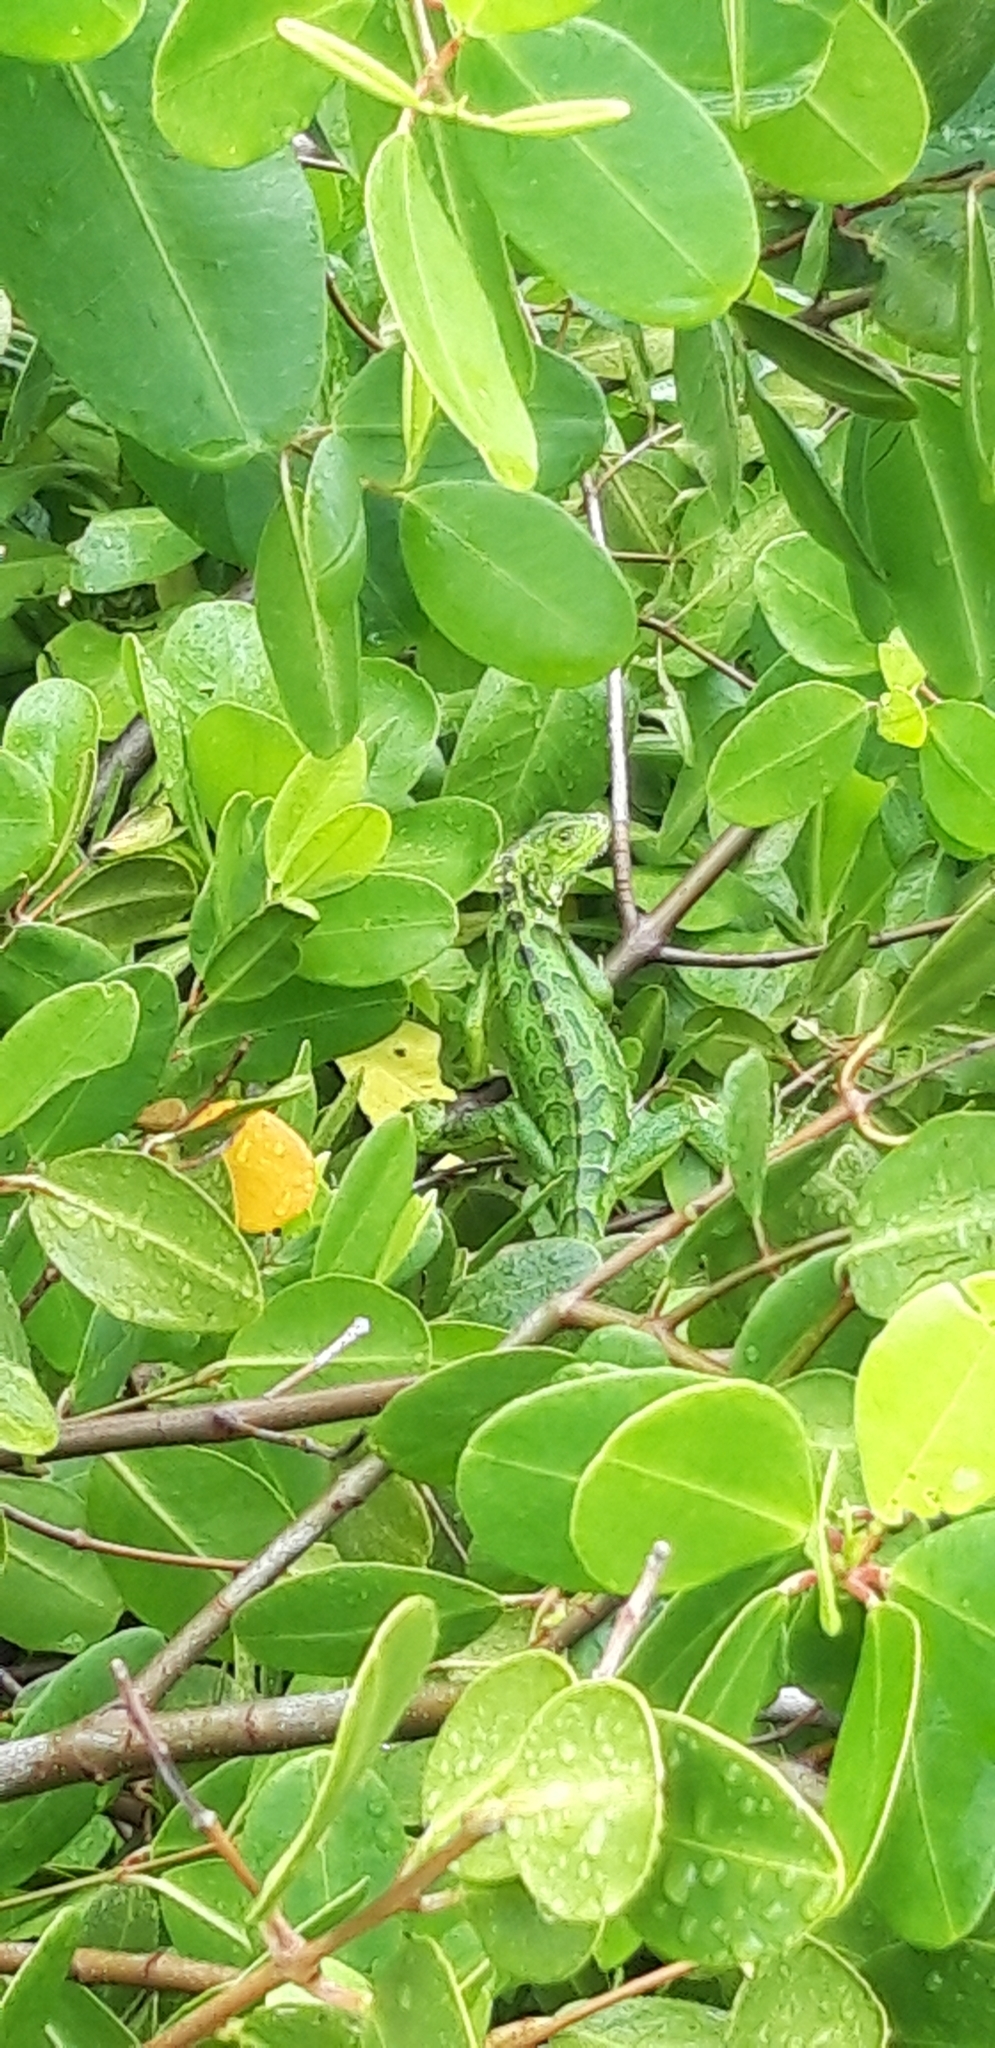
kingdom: Animalia
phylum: Chordata
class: Squamata
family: Iguanidae
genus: Iguana
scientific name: Iguana iguana
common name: Green iguana
